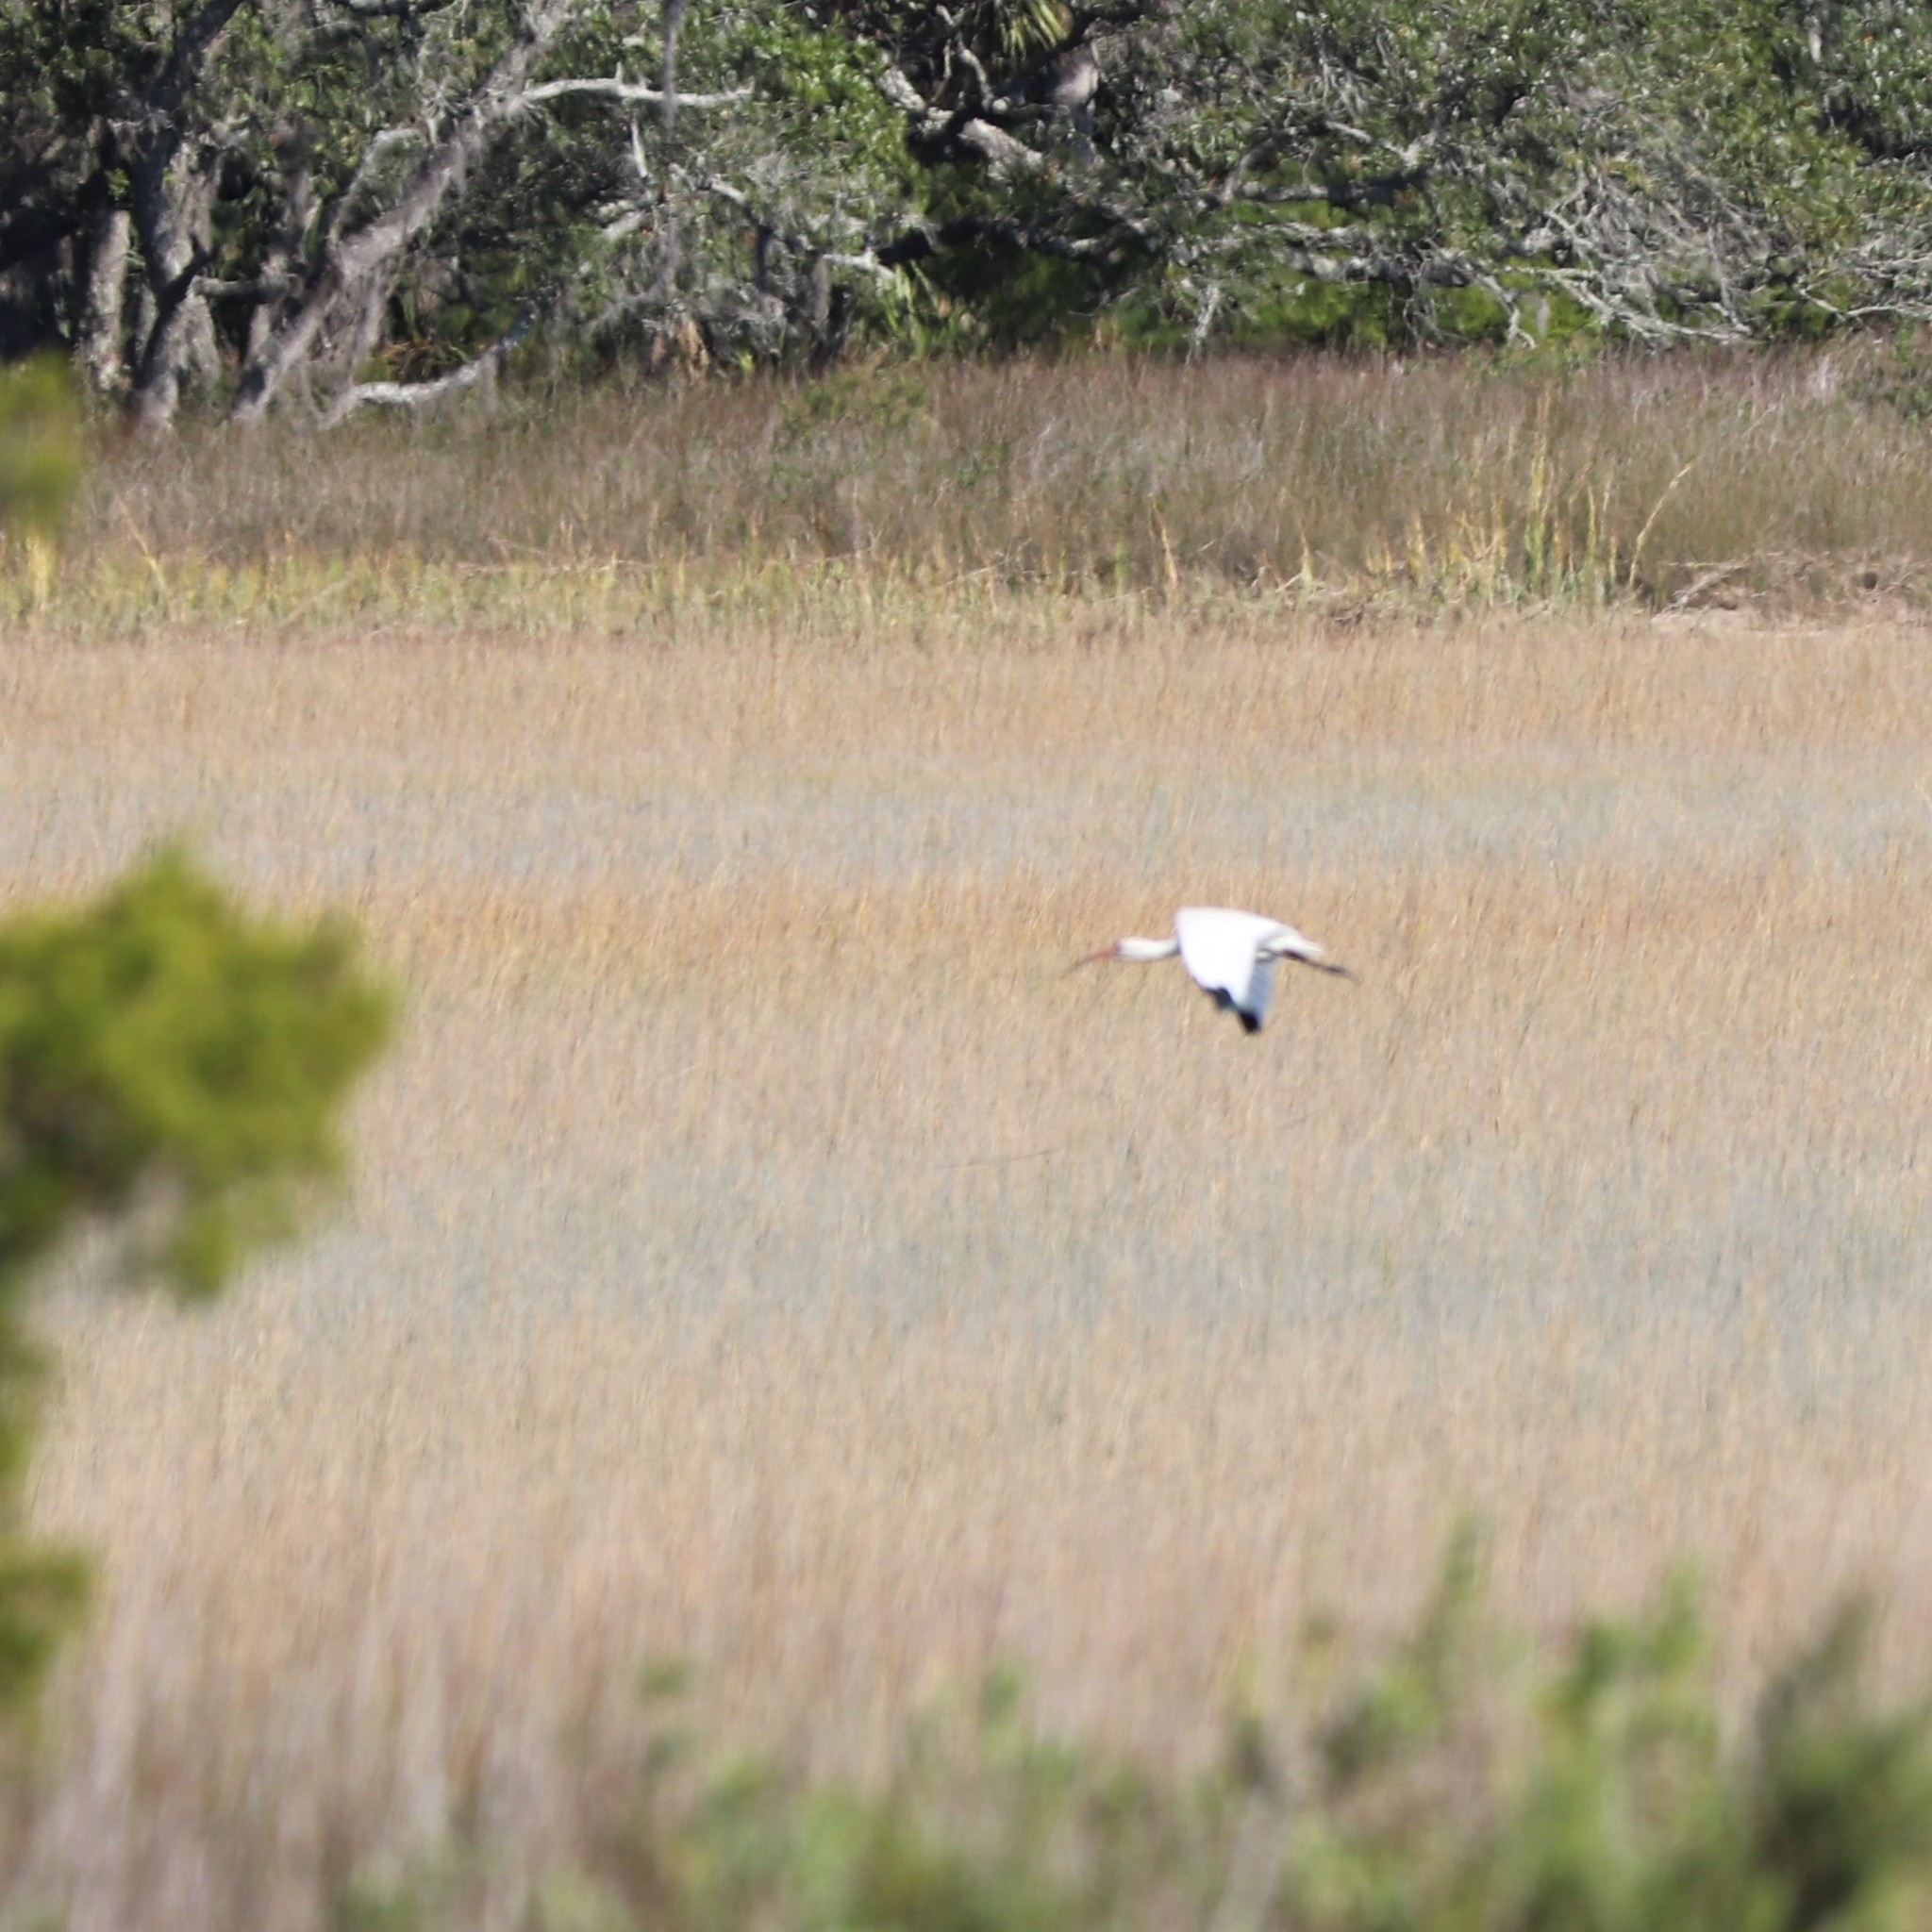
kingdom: Animalia
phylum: Chordata
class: Aves
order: Pelecaniformes
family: Threskiornithidae
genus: Eudocimus
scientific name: Eudocimus albus
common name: White ibis
